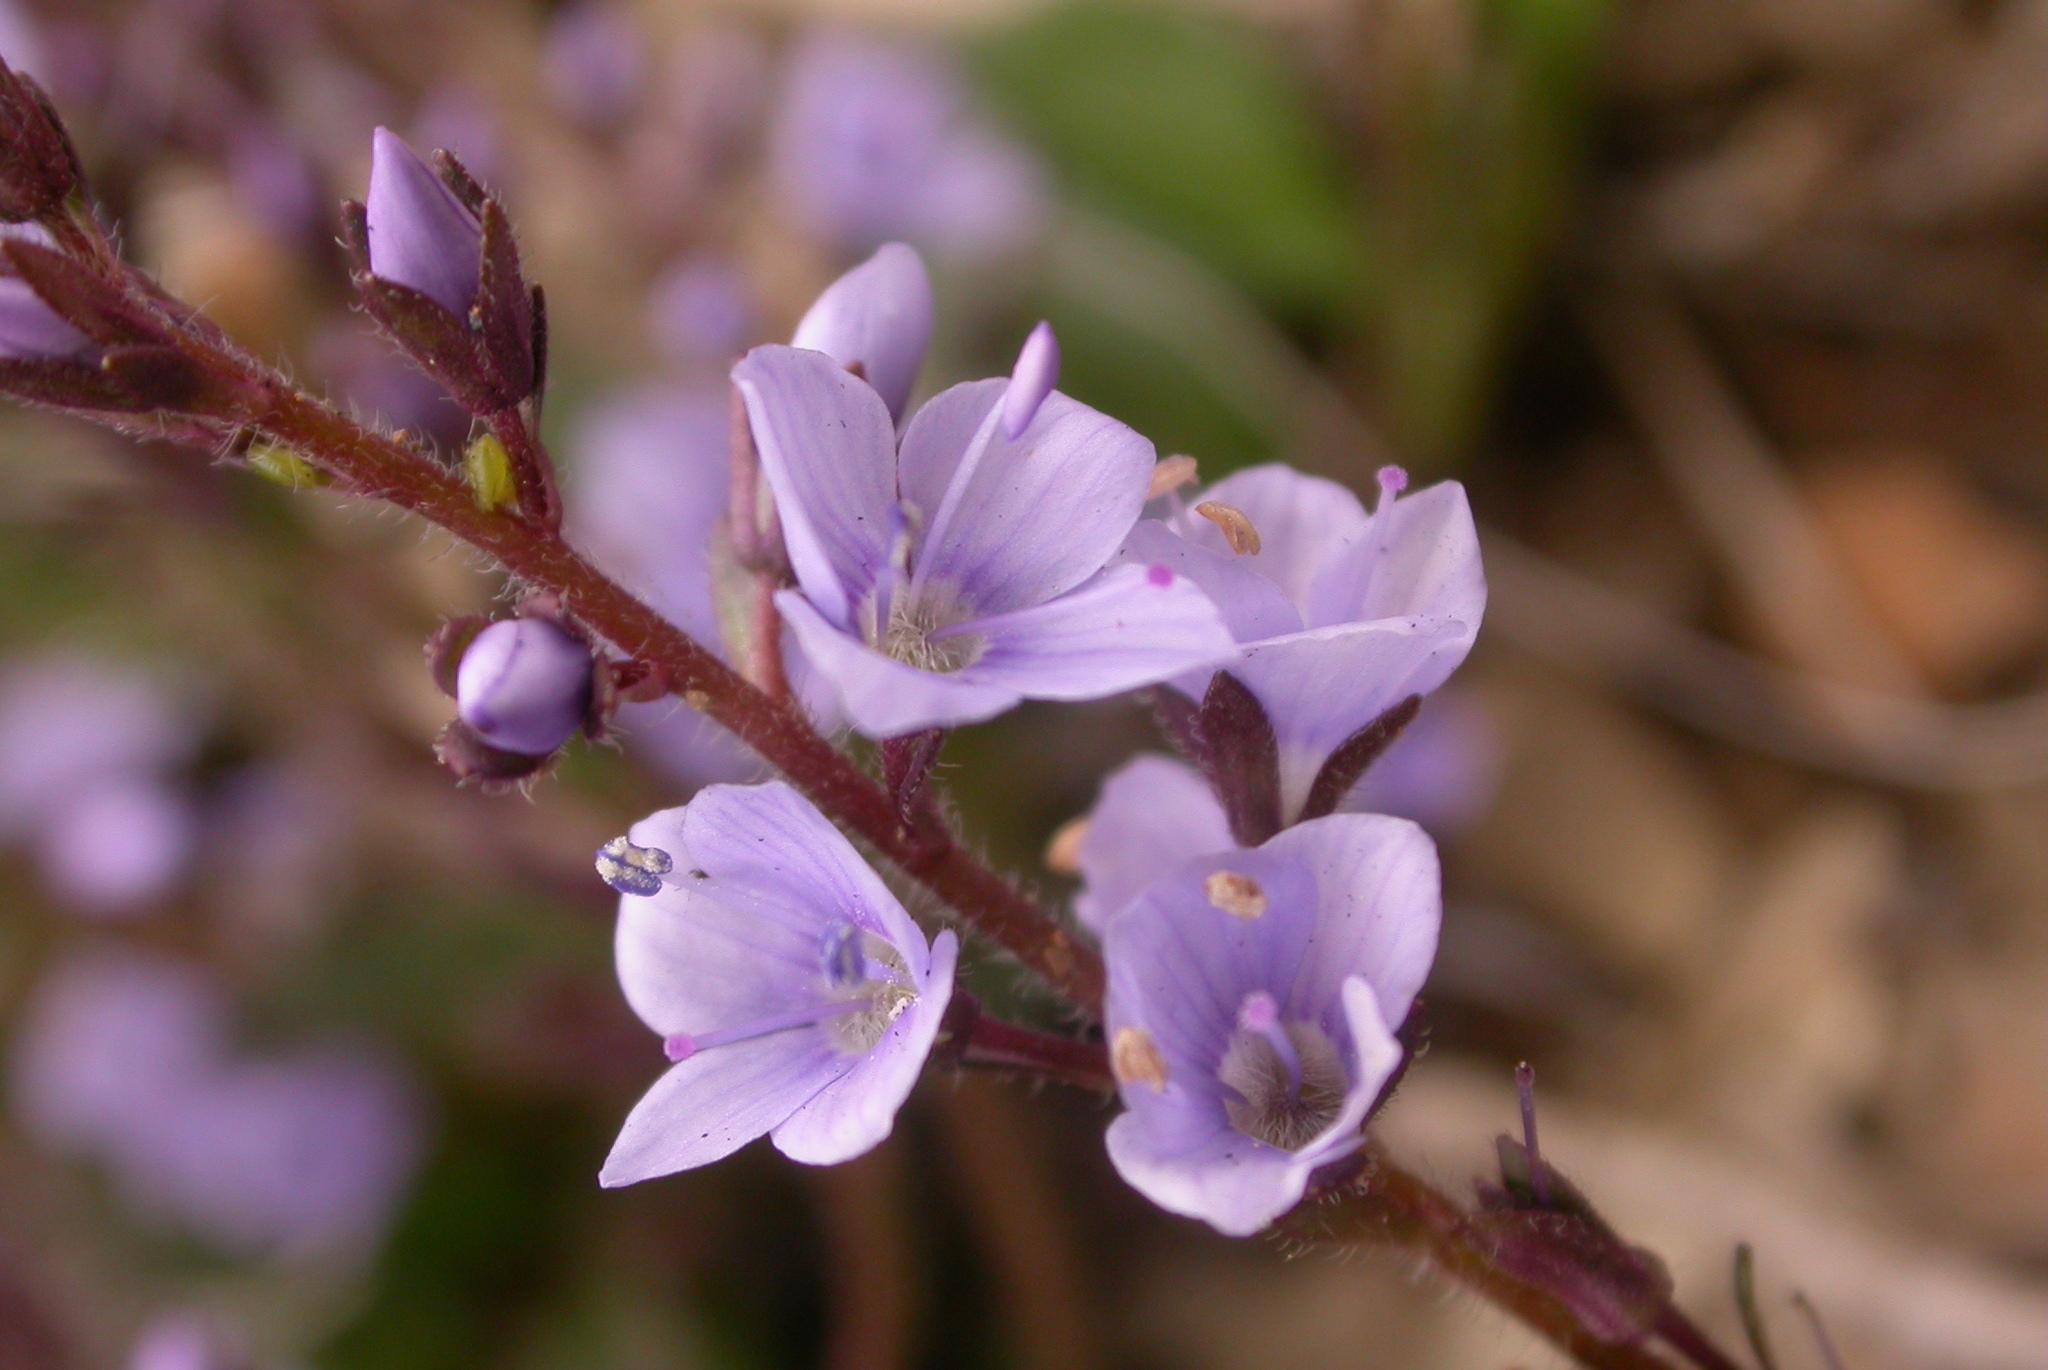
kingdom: Plantae
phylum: Tracheophyta
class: Magnoliopsida
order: Lamiales
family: Plantaginaceae
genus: Veronica
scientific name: Veronica morrisonicola
